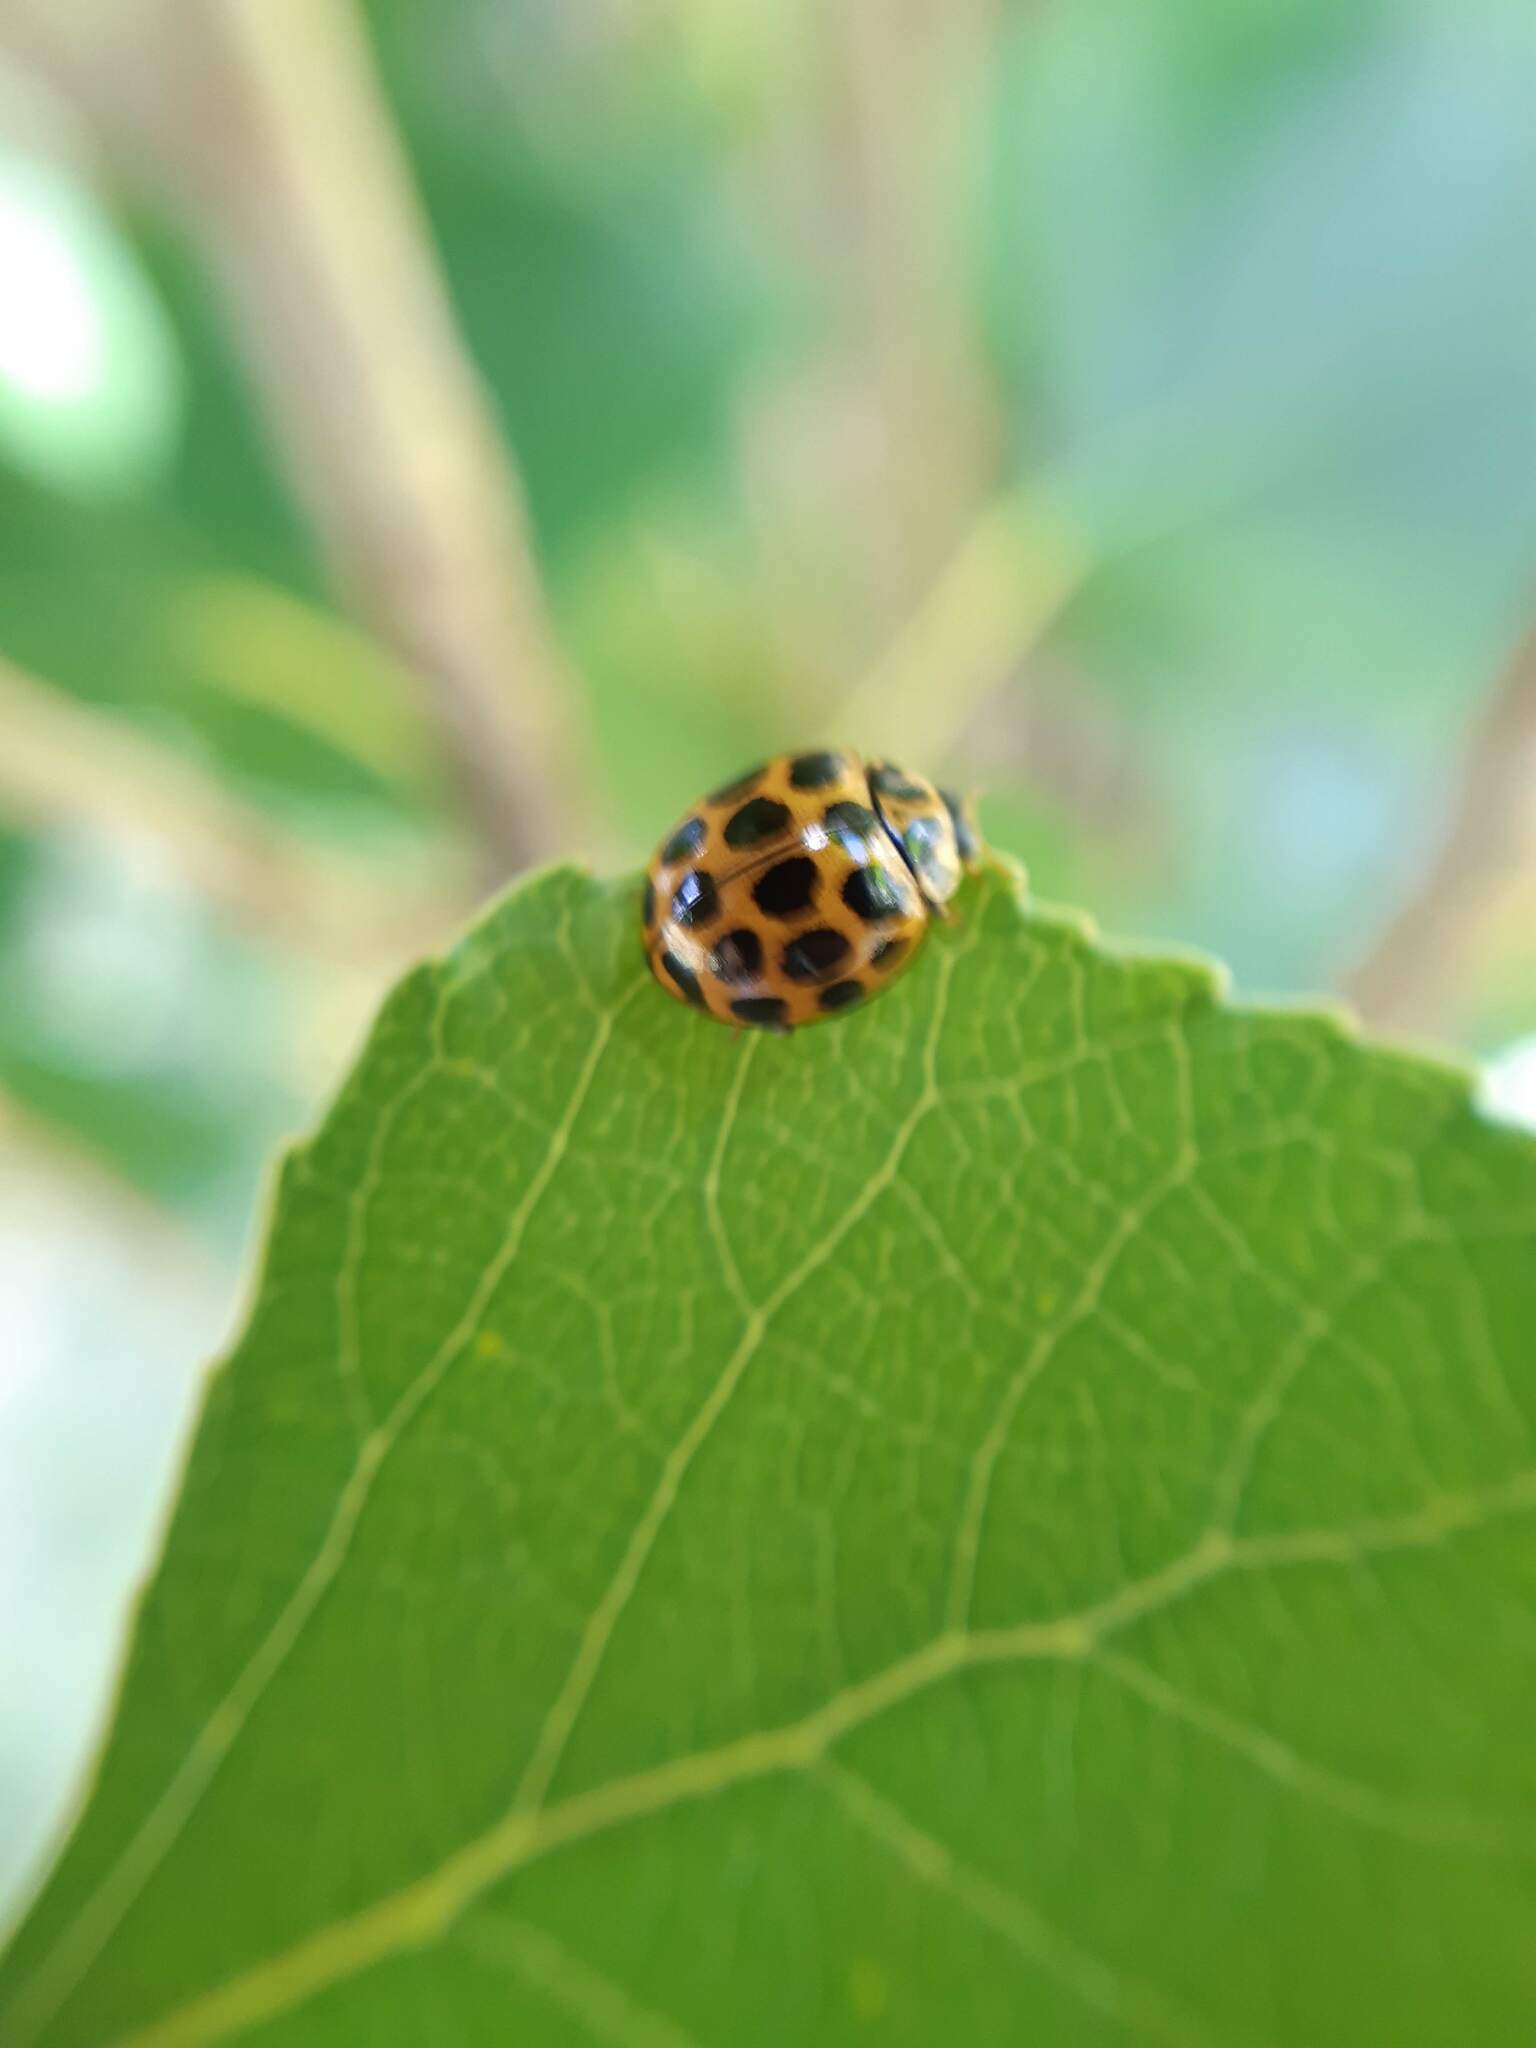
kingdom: Animalia
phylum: Arthropoda
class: Insecta
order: Coleoptera
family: Coccinellidae
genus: Harmonia
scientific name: Harmonia conformis
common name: Common spotted ladybird beetle
